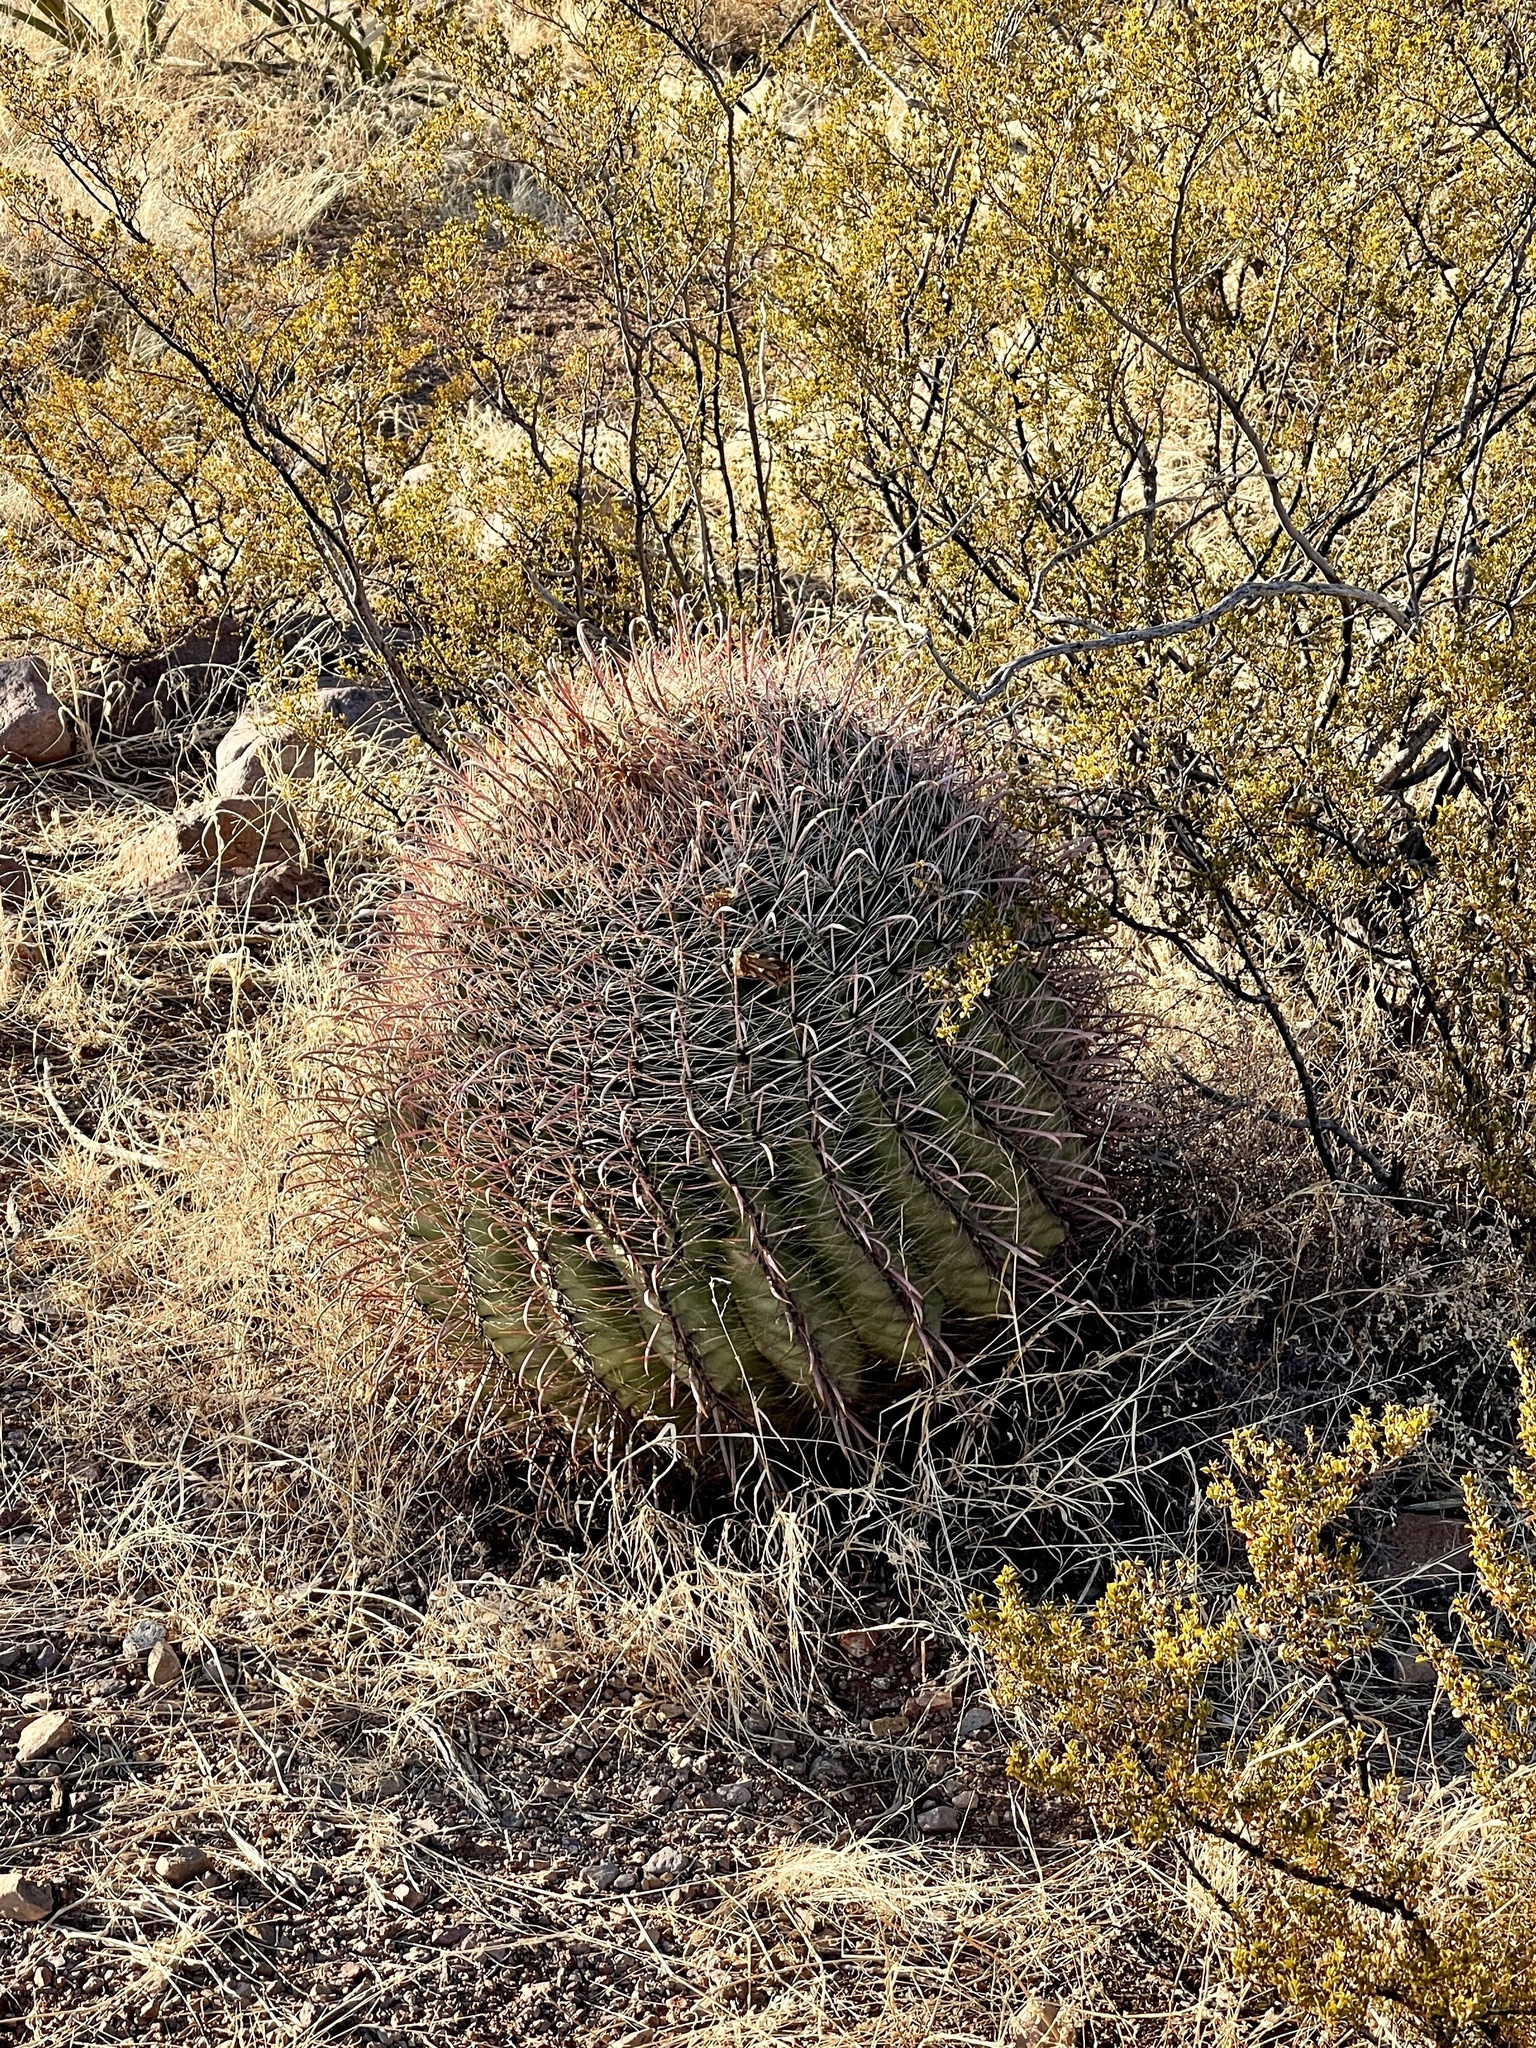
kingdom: Plantae
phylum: Tracheophyta
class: Magnoliopsida
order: Caryophyllales
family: Cactaceae
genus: Ferocactus
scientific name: Ferocactus wislizeni
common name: Candy barrel cactus
